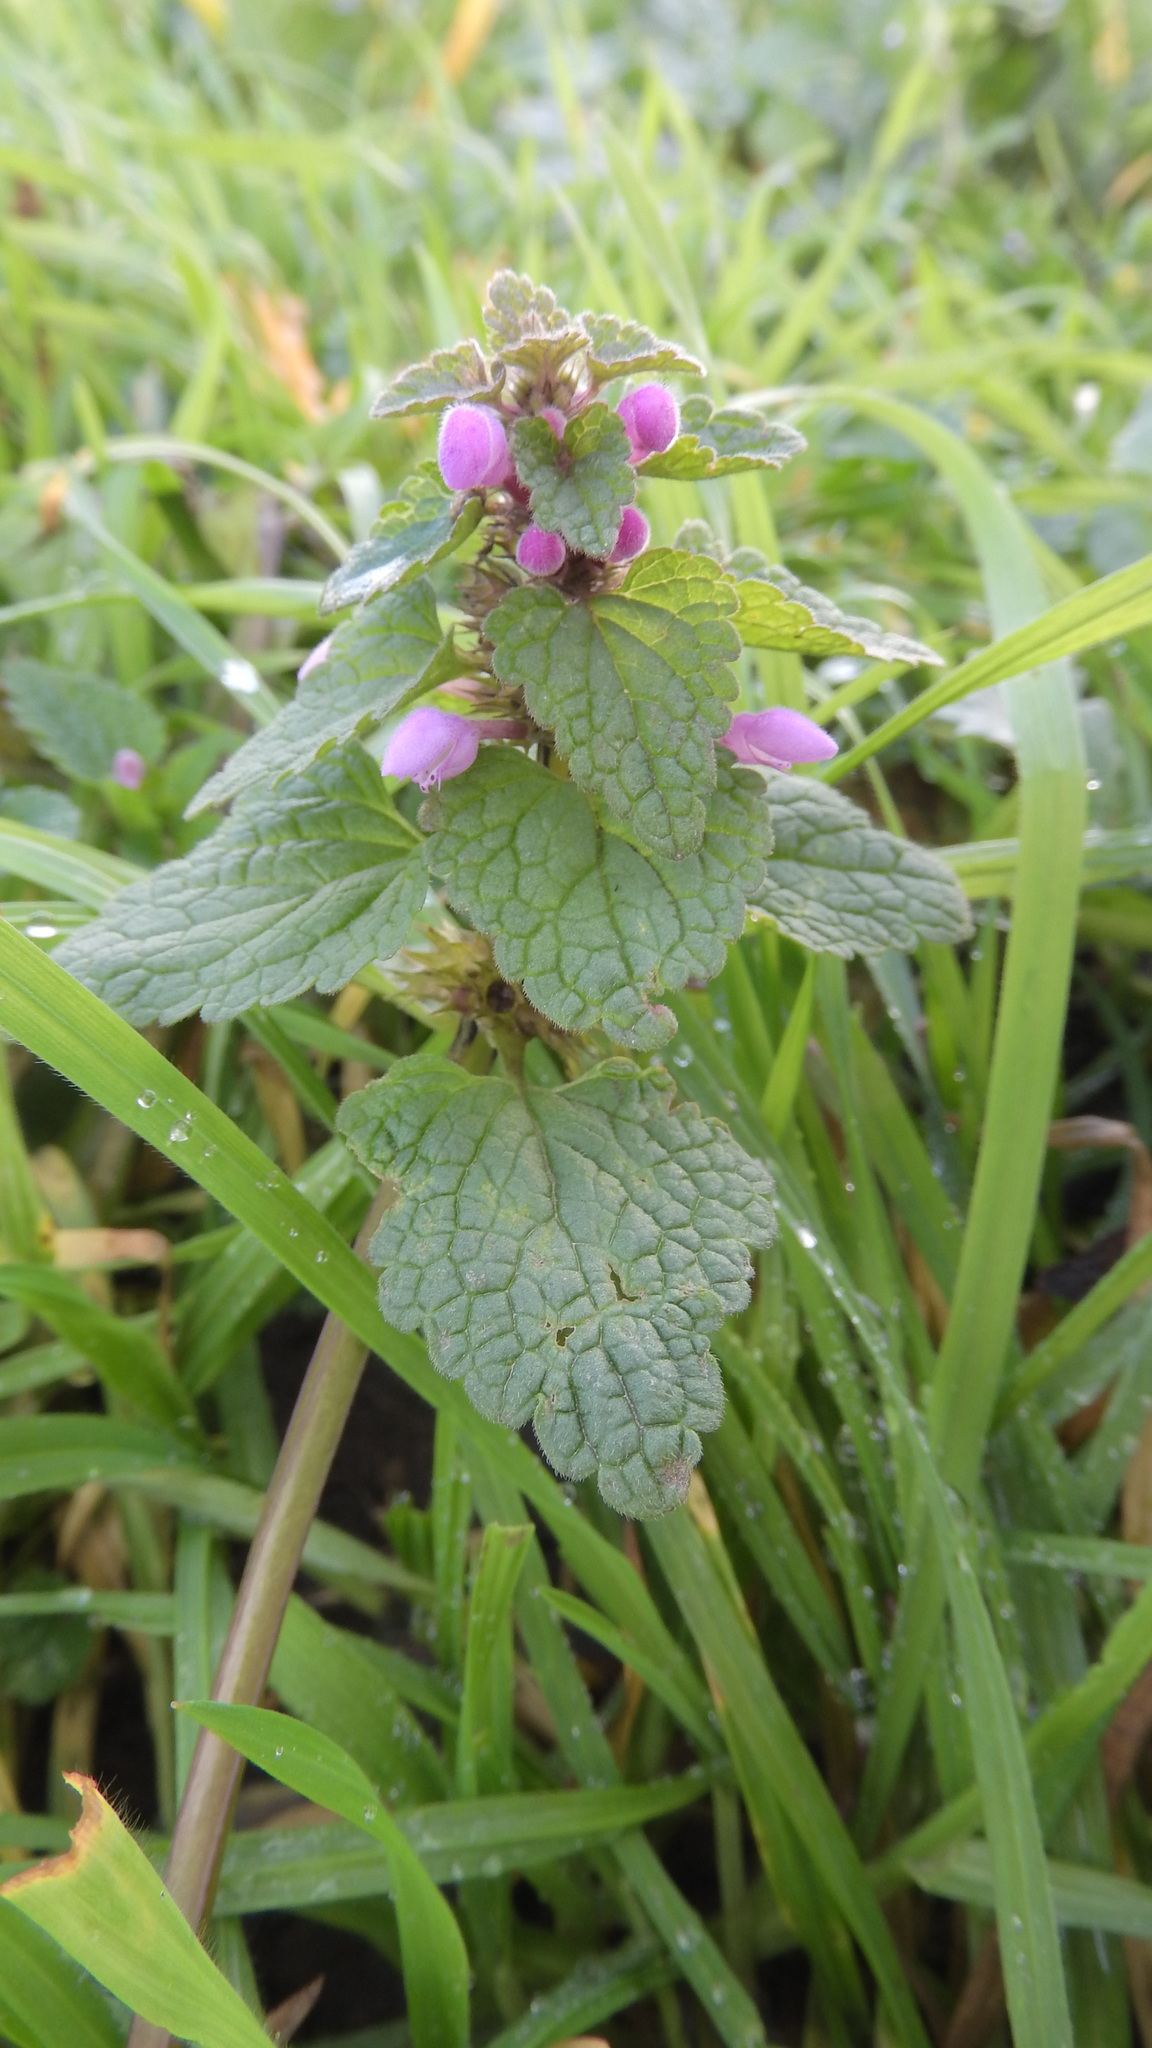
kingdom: Plantae
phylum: Tracheophyta
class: Magnoliopsida
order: Lamiales
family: Lamiaceae
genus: Lamium
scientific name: Lamium purpureum
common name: Red dead-nettle
